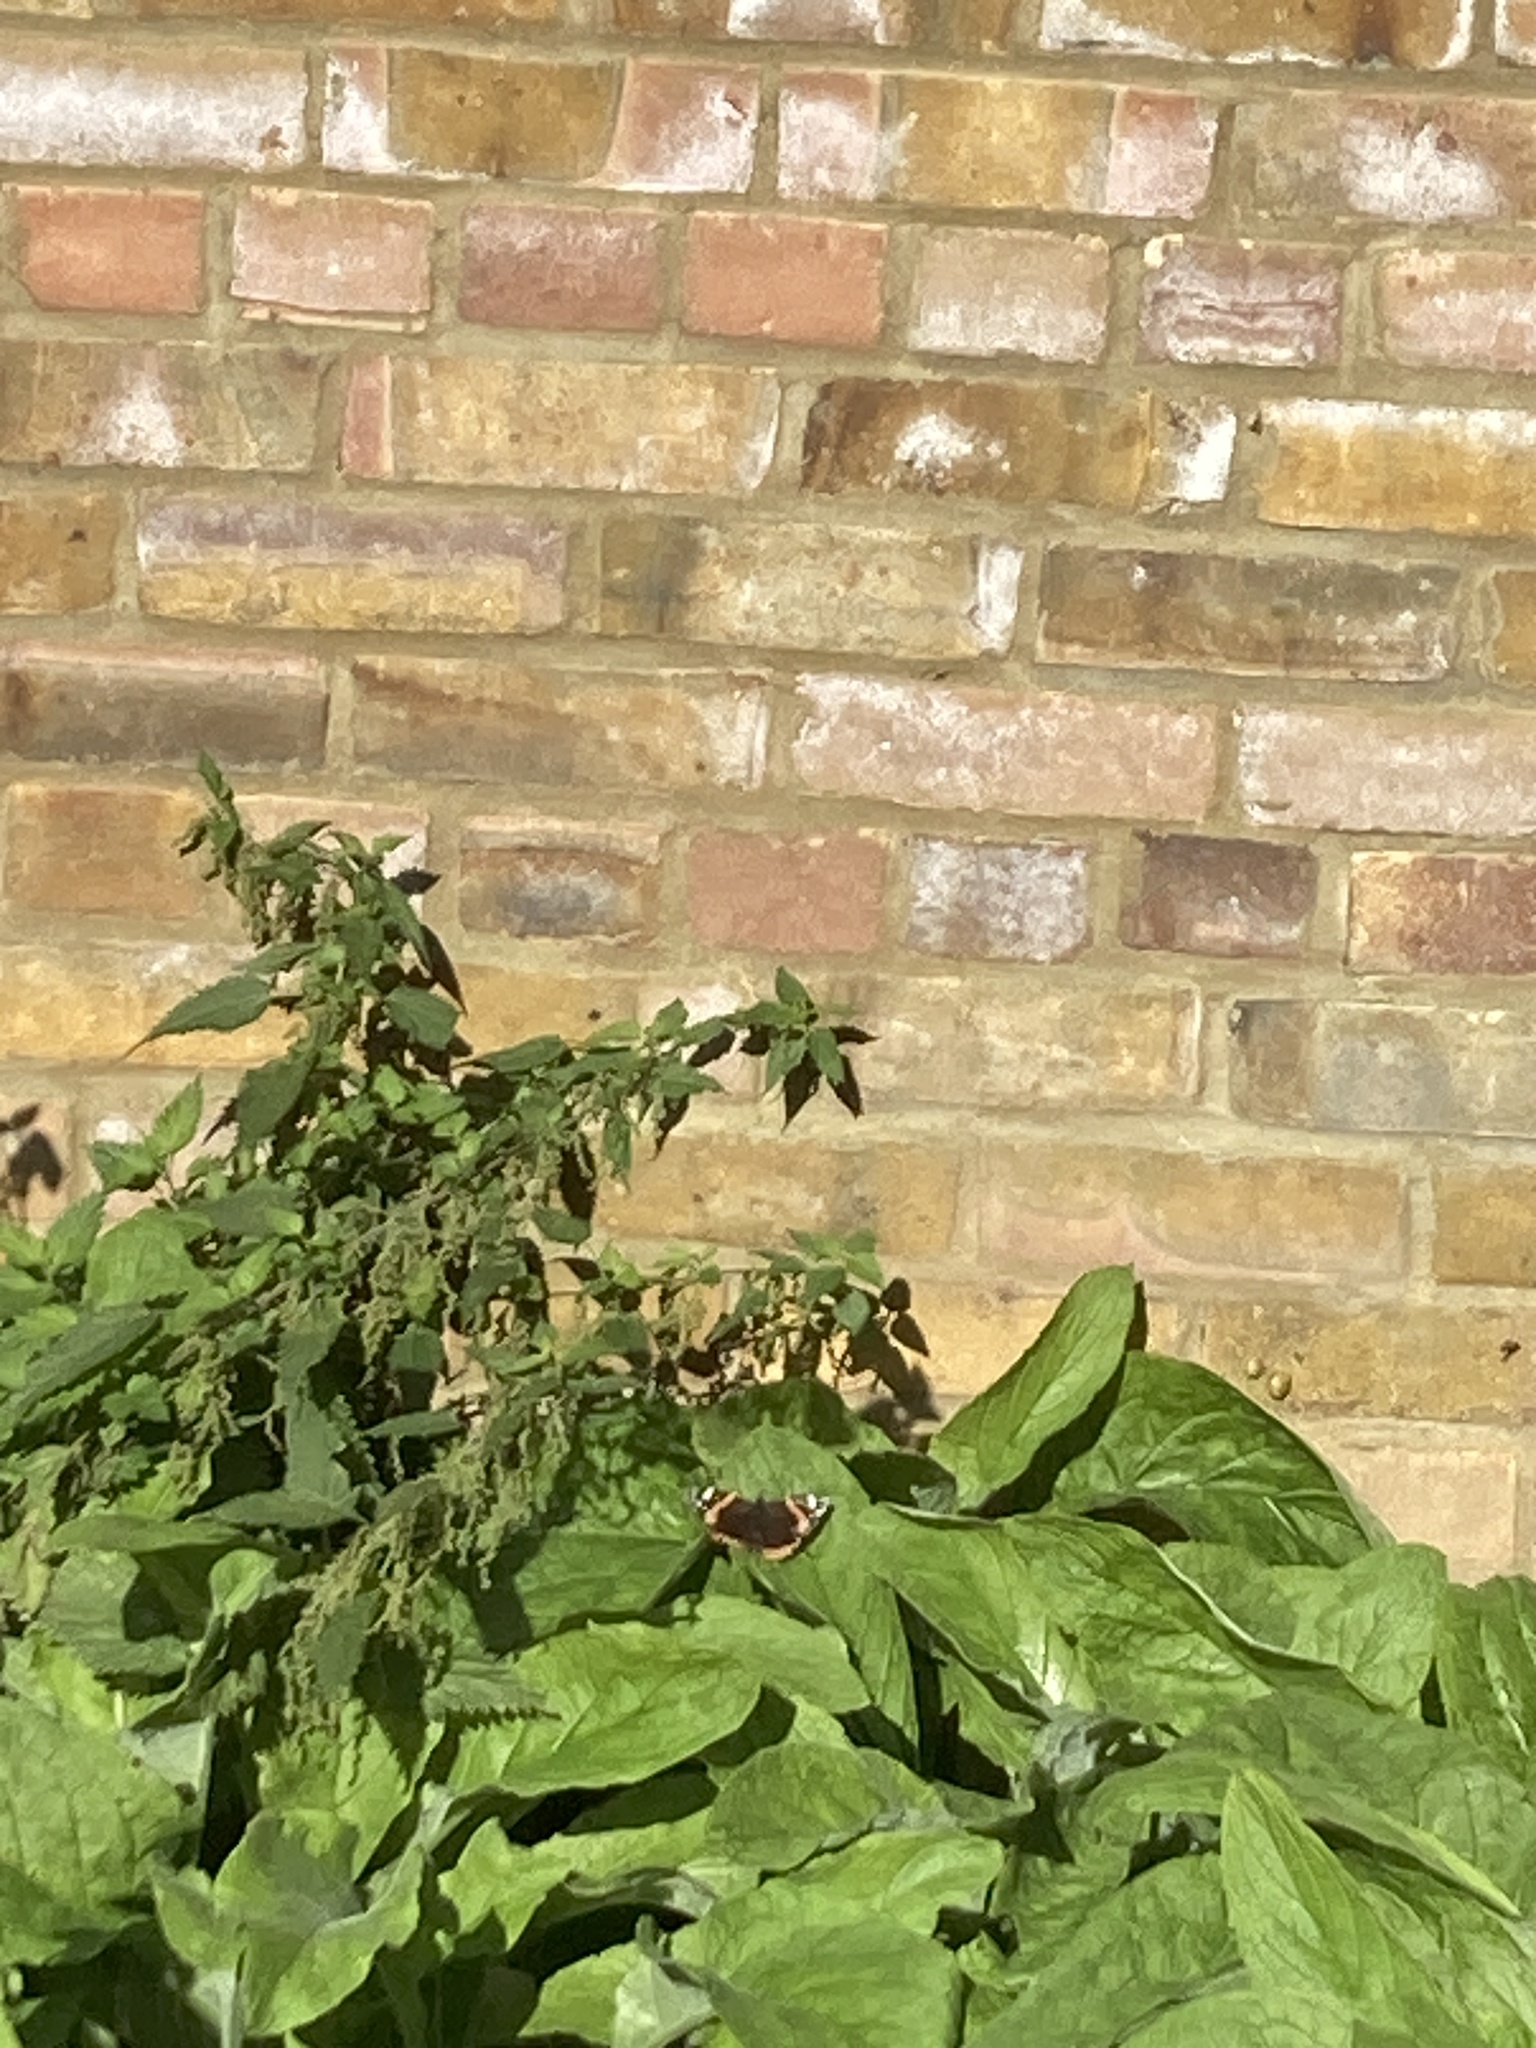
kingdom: Animalia
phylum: Arthropoda
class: Insecta
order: Lepidoptera
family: Nymphalidae
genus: Vanessa
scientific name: Vanessa atalanta
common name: Red admiral
